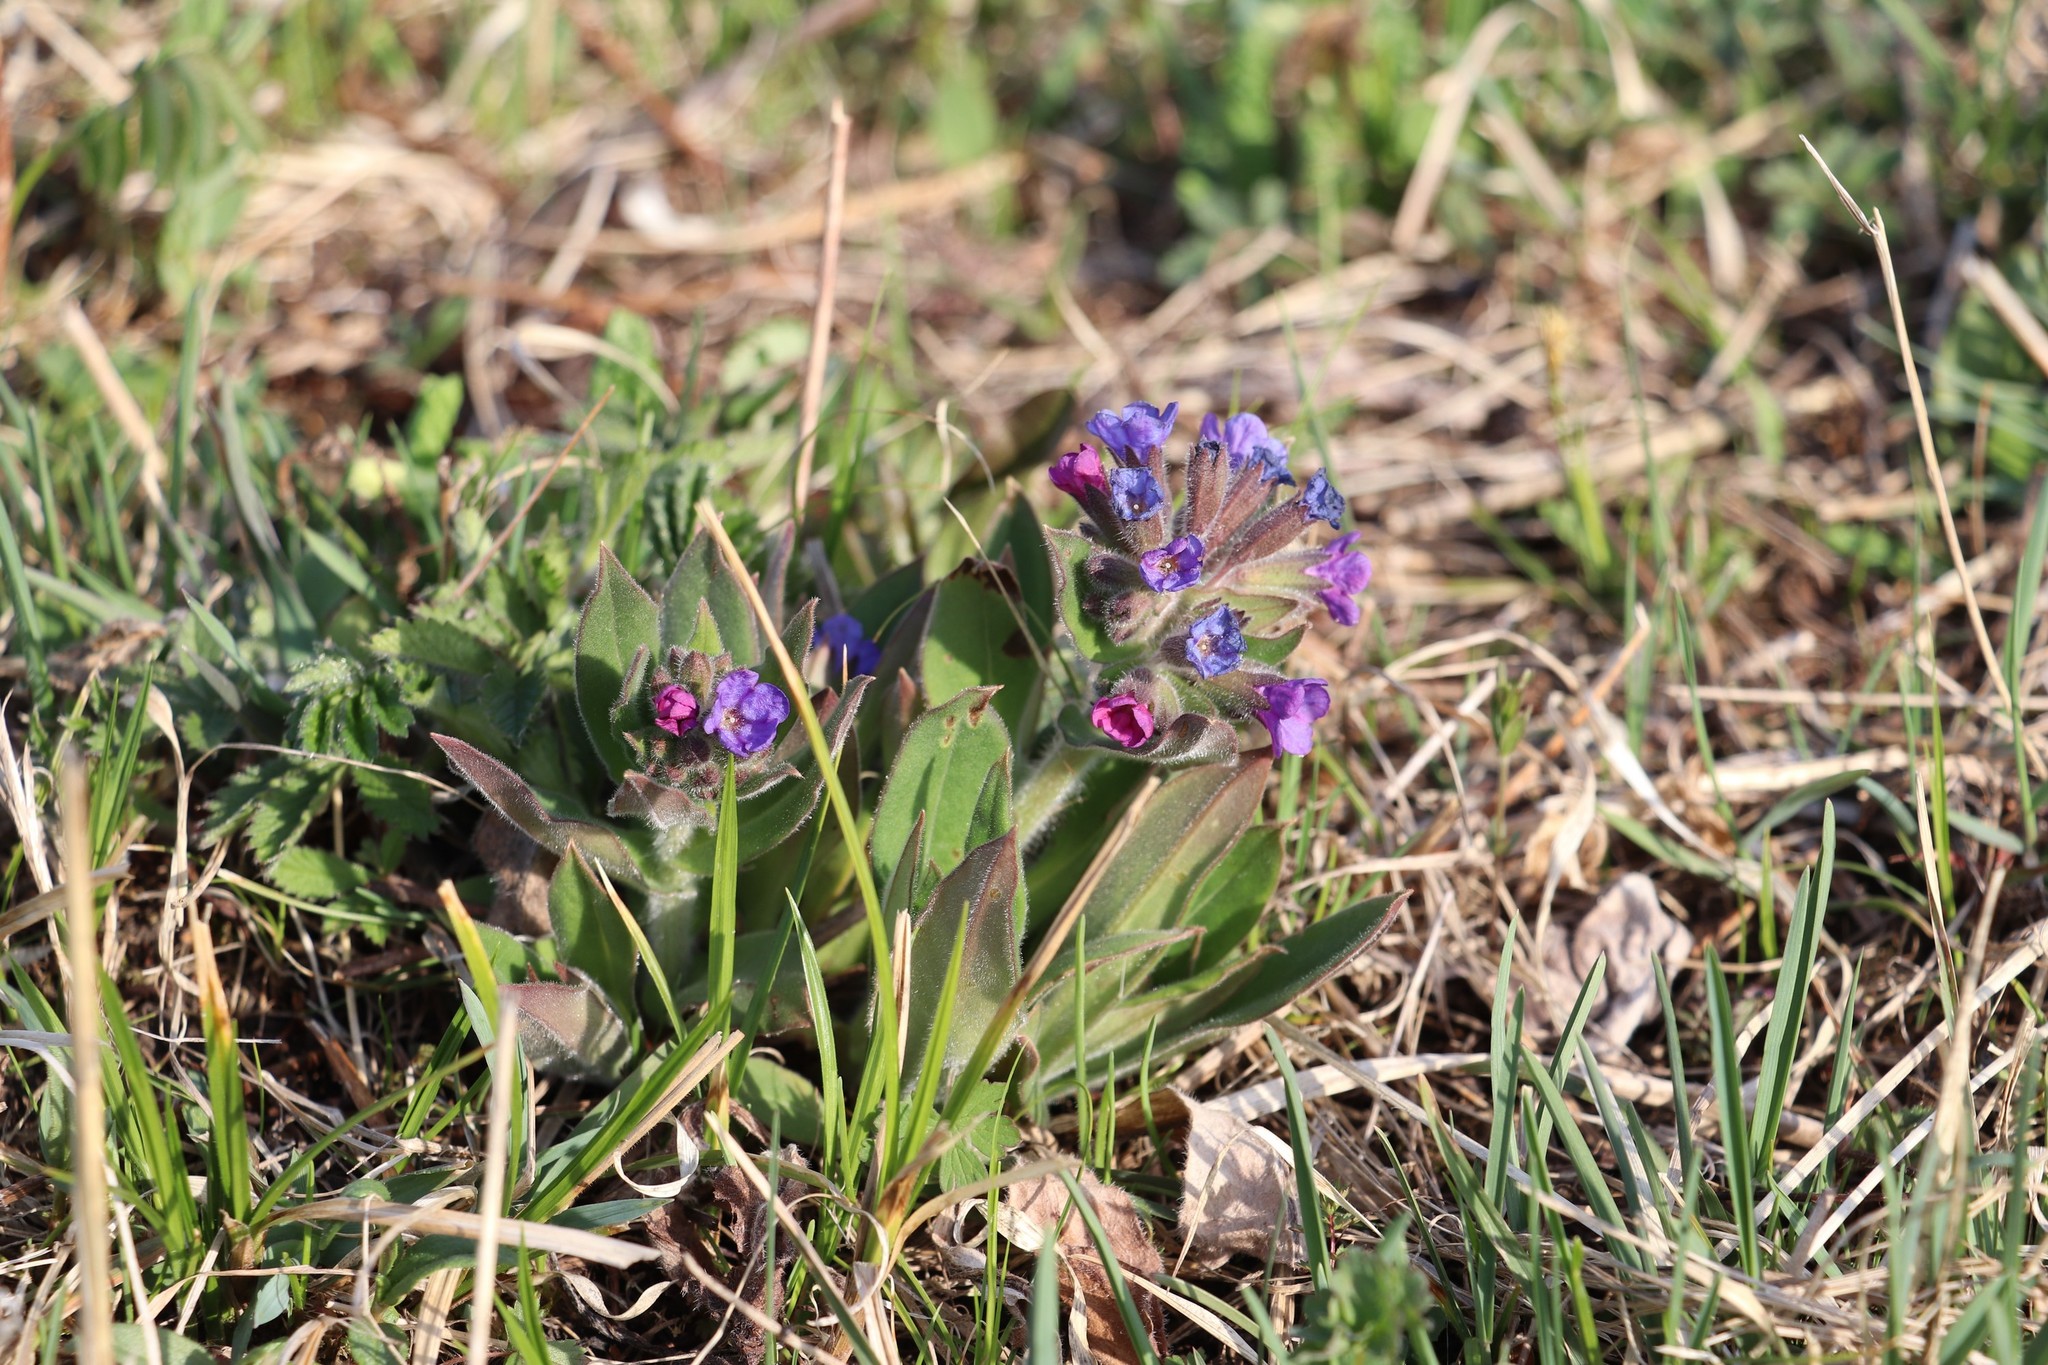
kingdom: Plantae
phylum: Tracheophyta
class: Magnoliopsida
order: Boraginales
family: Boraginaceae
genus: Pulmonaria
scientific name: Pulmonaria mollis
